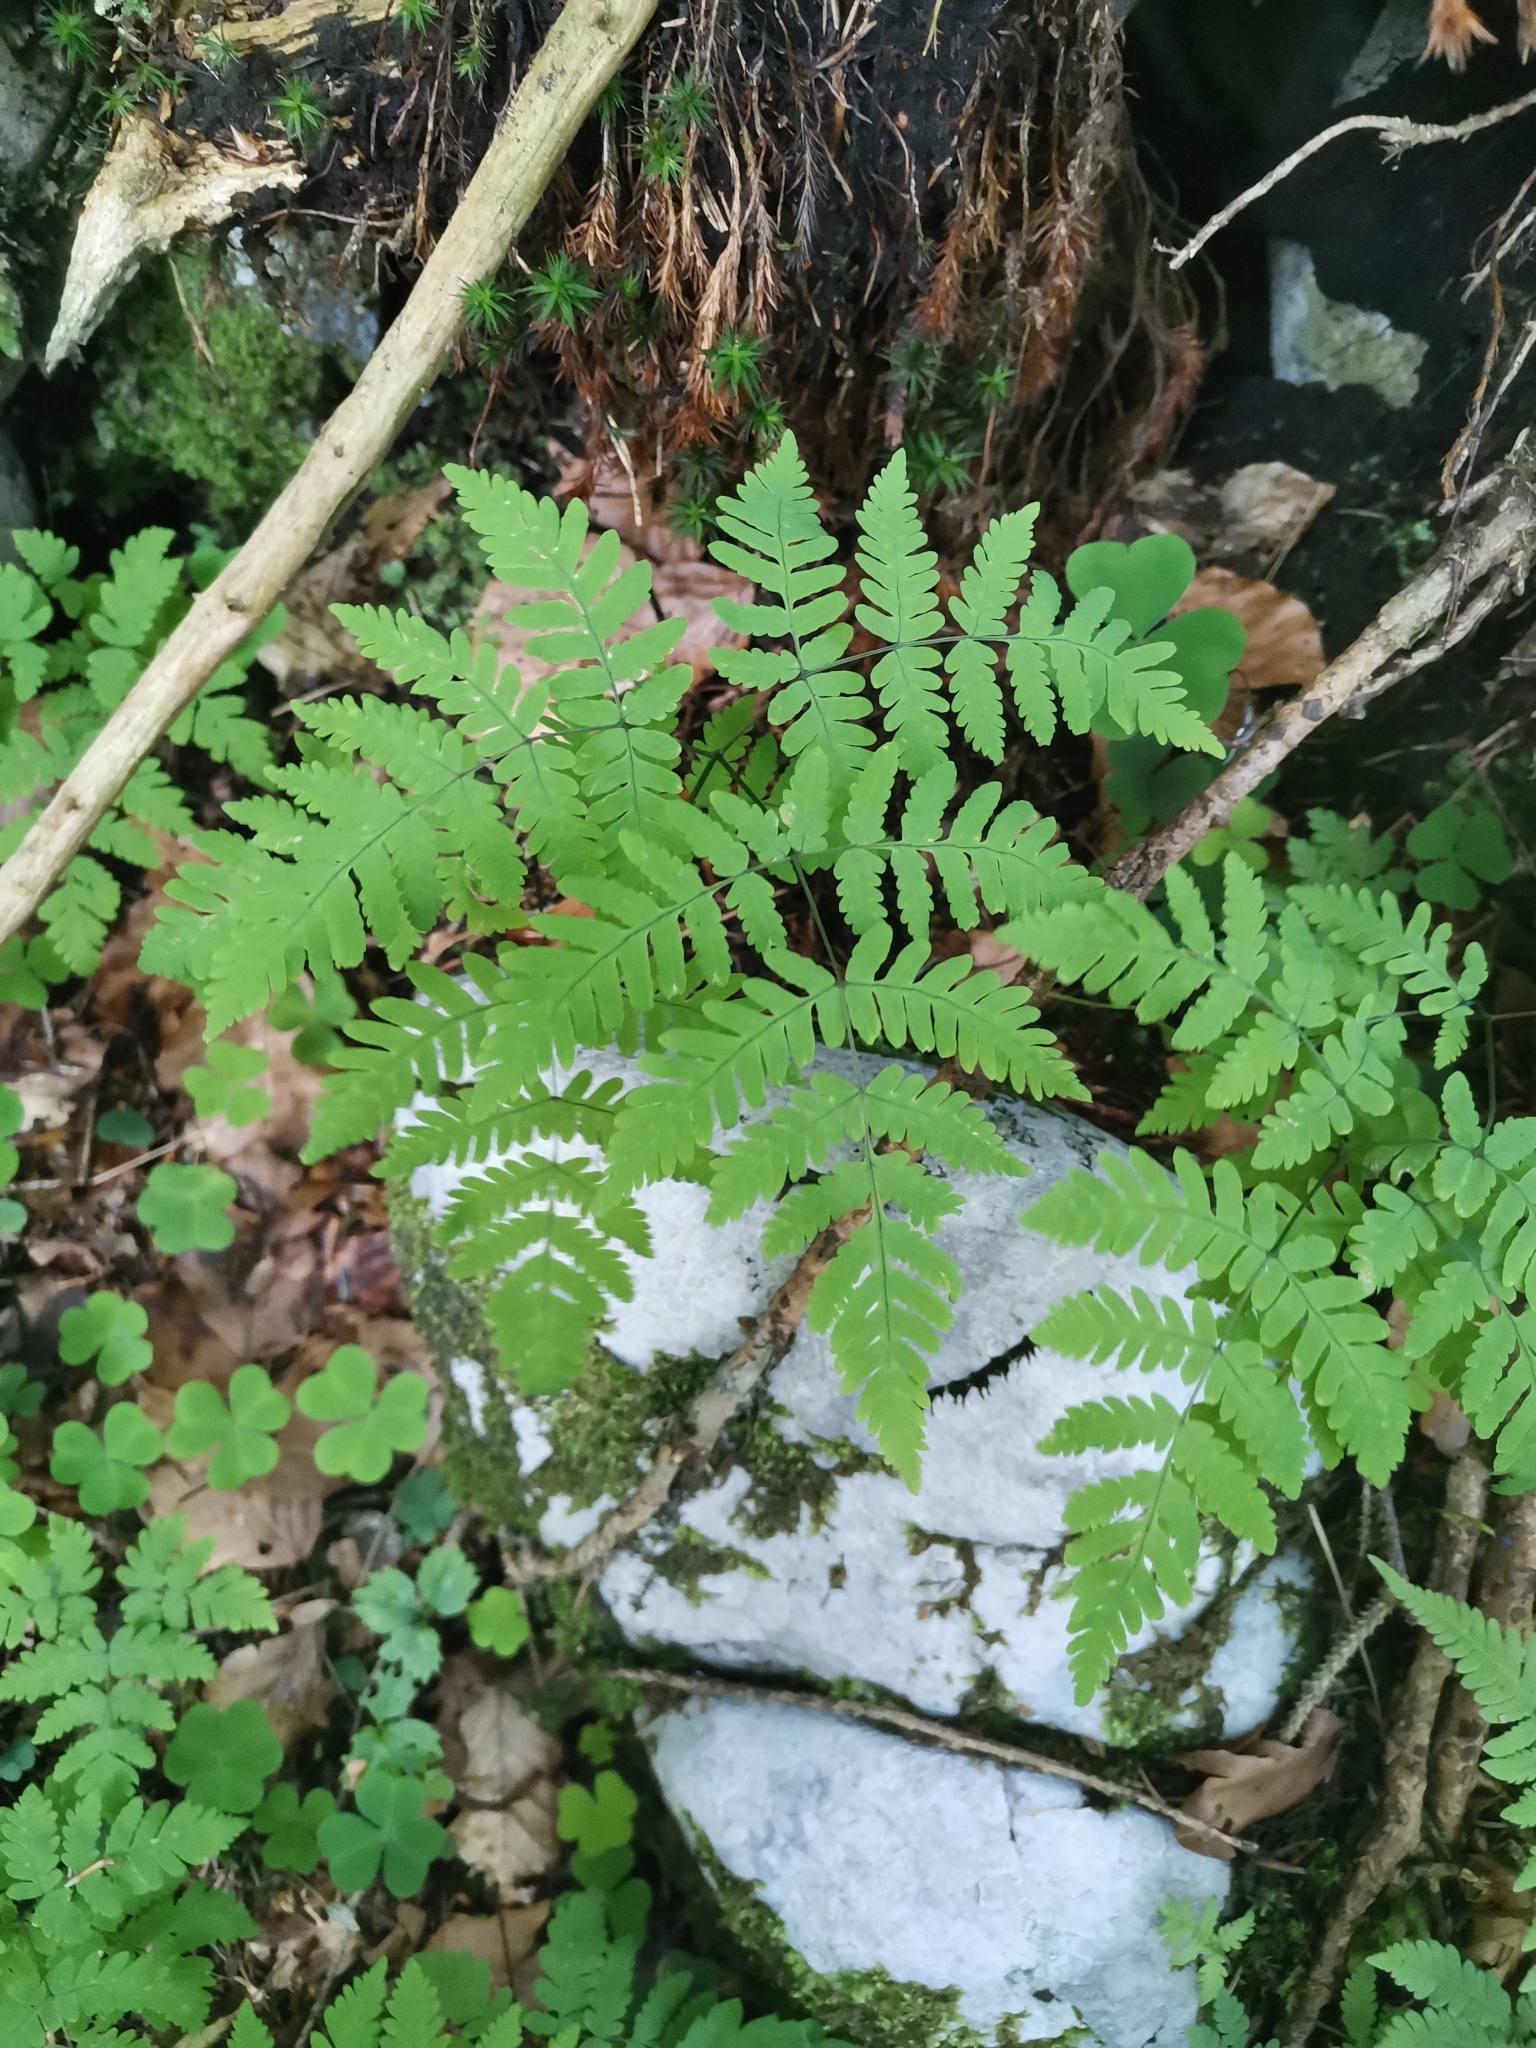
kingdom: Plantae
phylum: Tracheophyta
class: Polypodiopsida
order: Polypodiales
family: Cystopteridaceae
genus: Gymnocarpium
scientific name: Gymnocarpium dryopteris
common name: Oak fern
